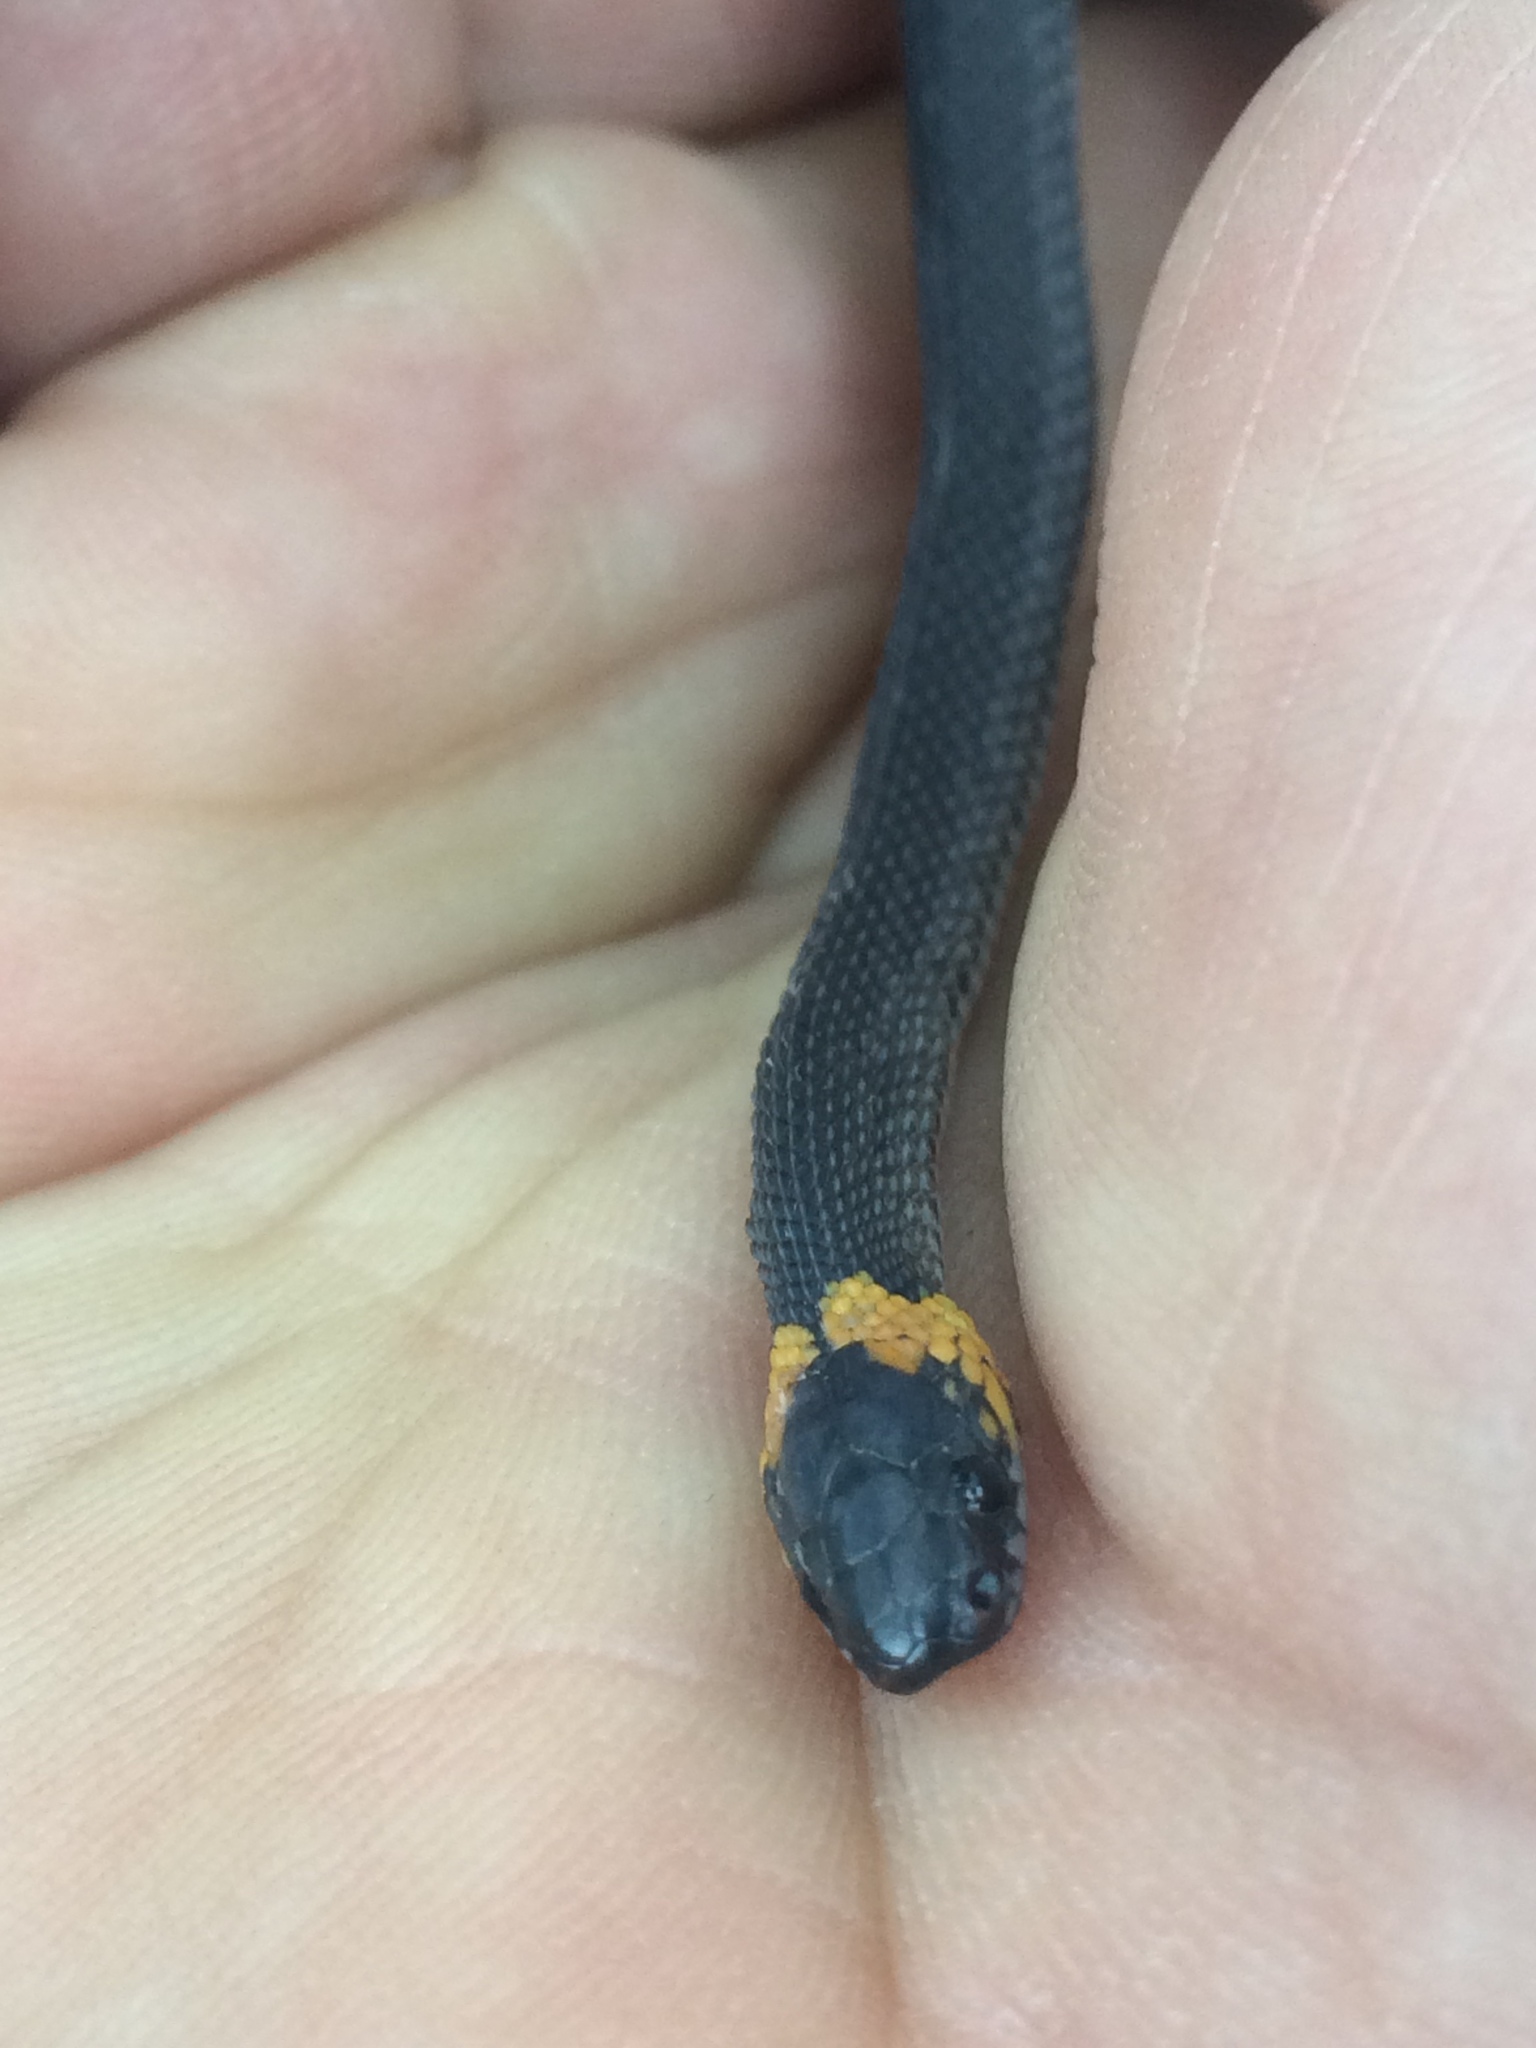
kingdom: Animalia
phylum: Chordata
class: Squamata
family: Colubridae
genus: Ninia
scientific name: Ninia diademata
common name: Ringneck coffee snake
